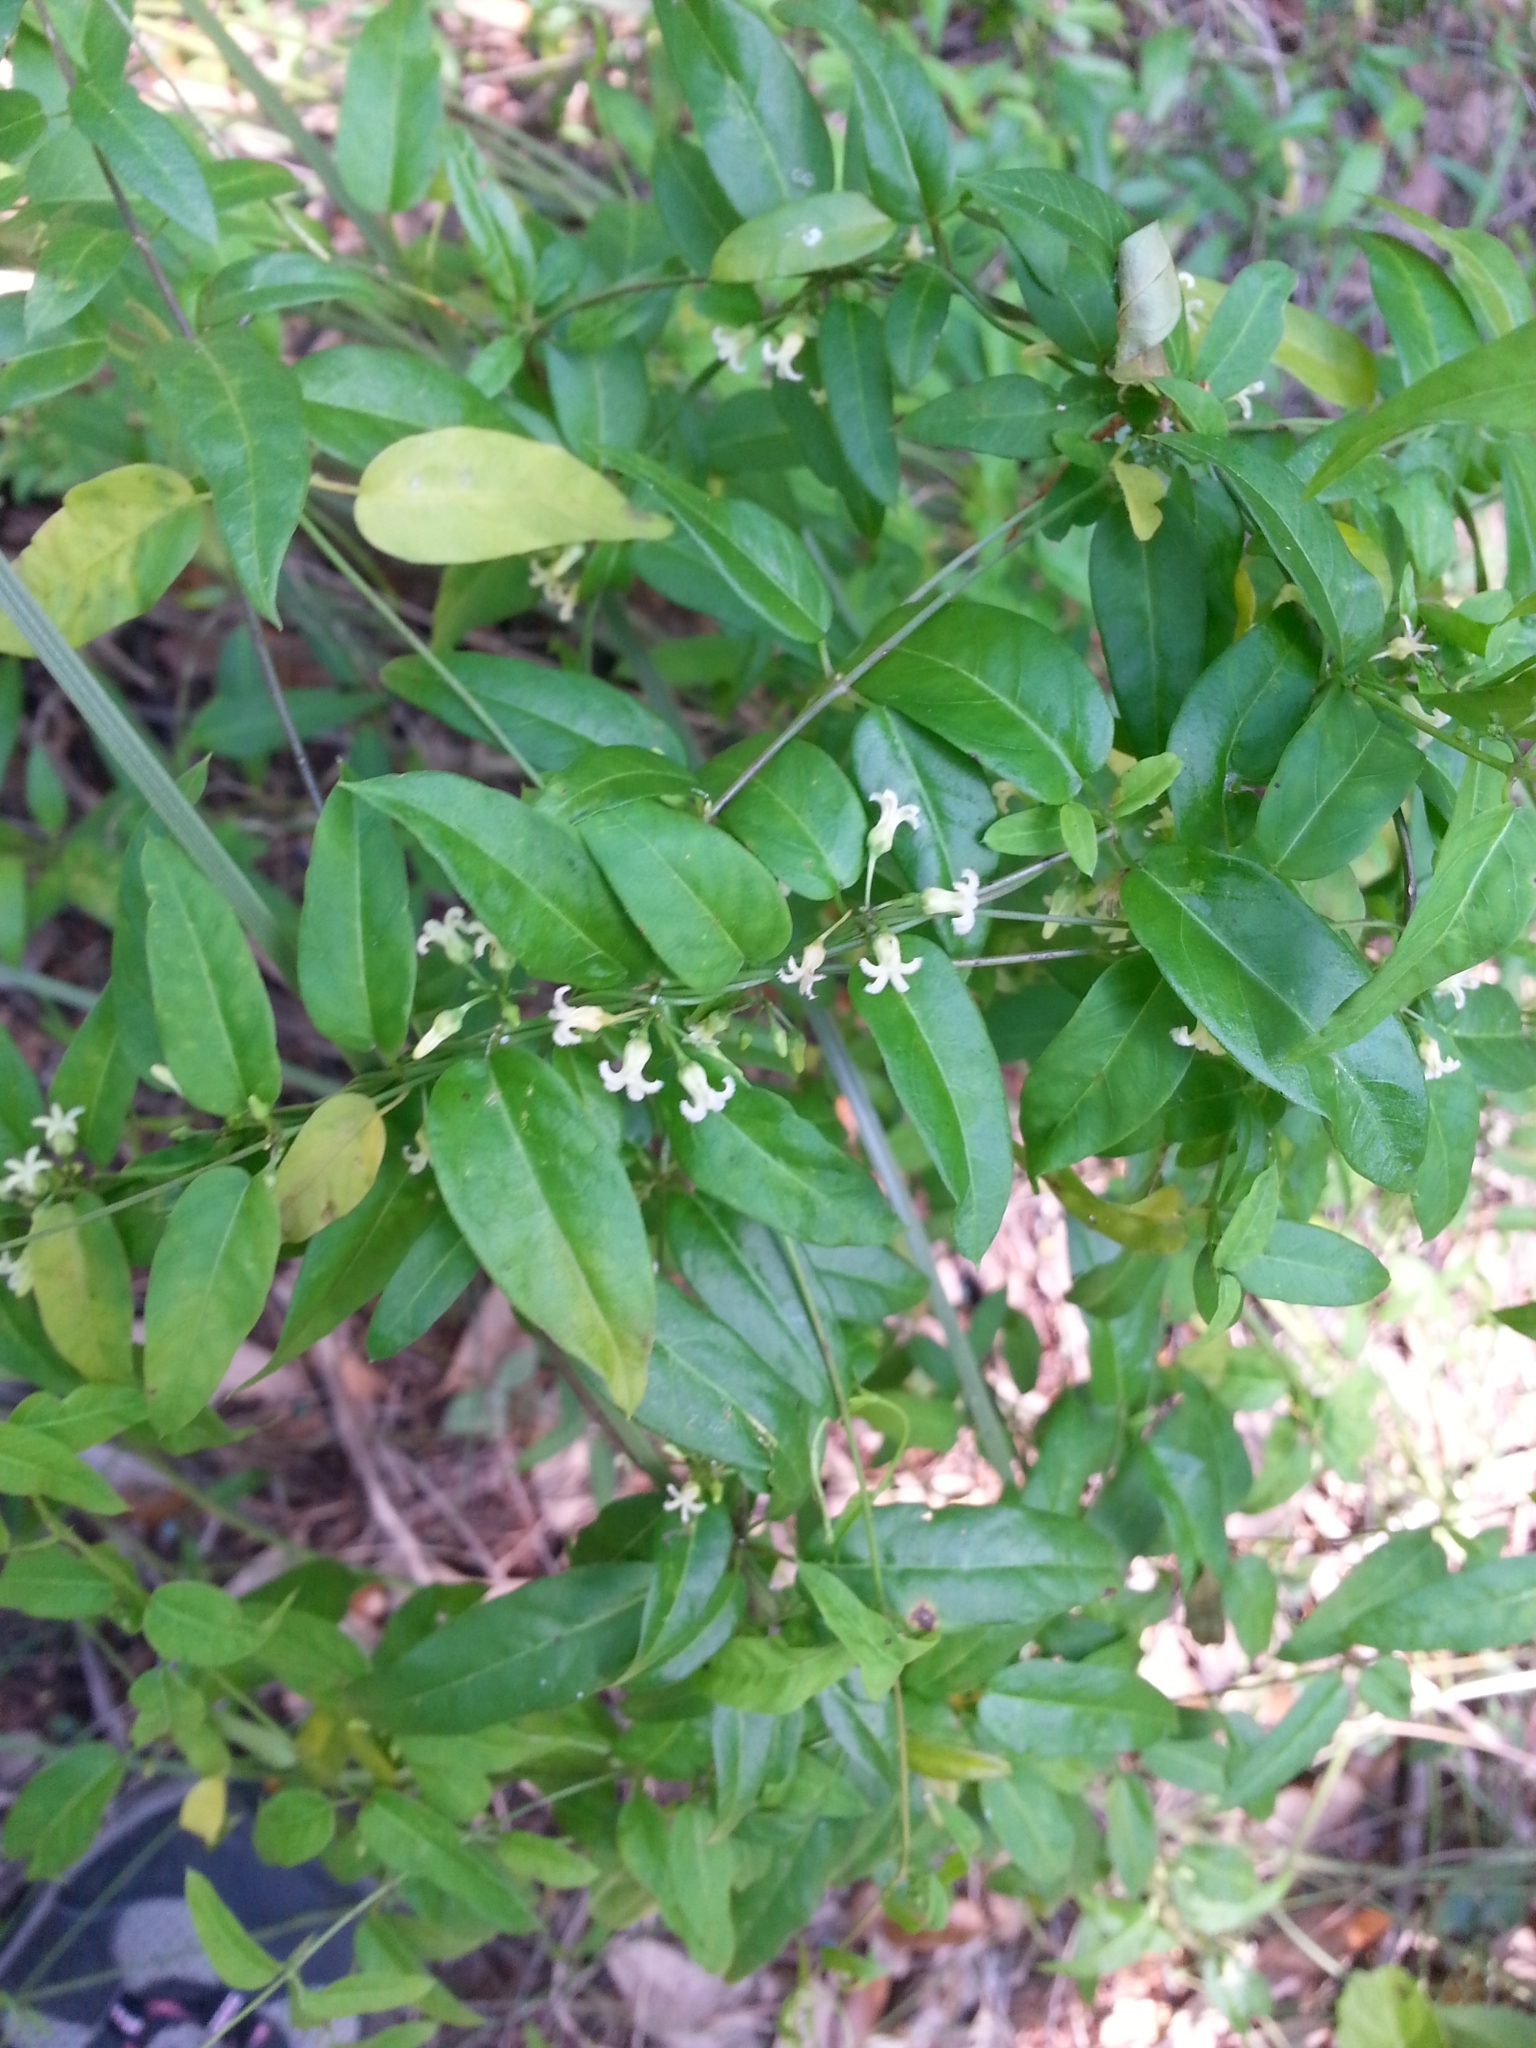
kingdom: Plantae
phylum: Tracheophyta
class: Magnoliopsida
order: Gentianales
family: Apocynaceae
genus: Metastelma
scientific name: Metastelma barbigerum
